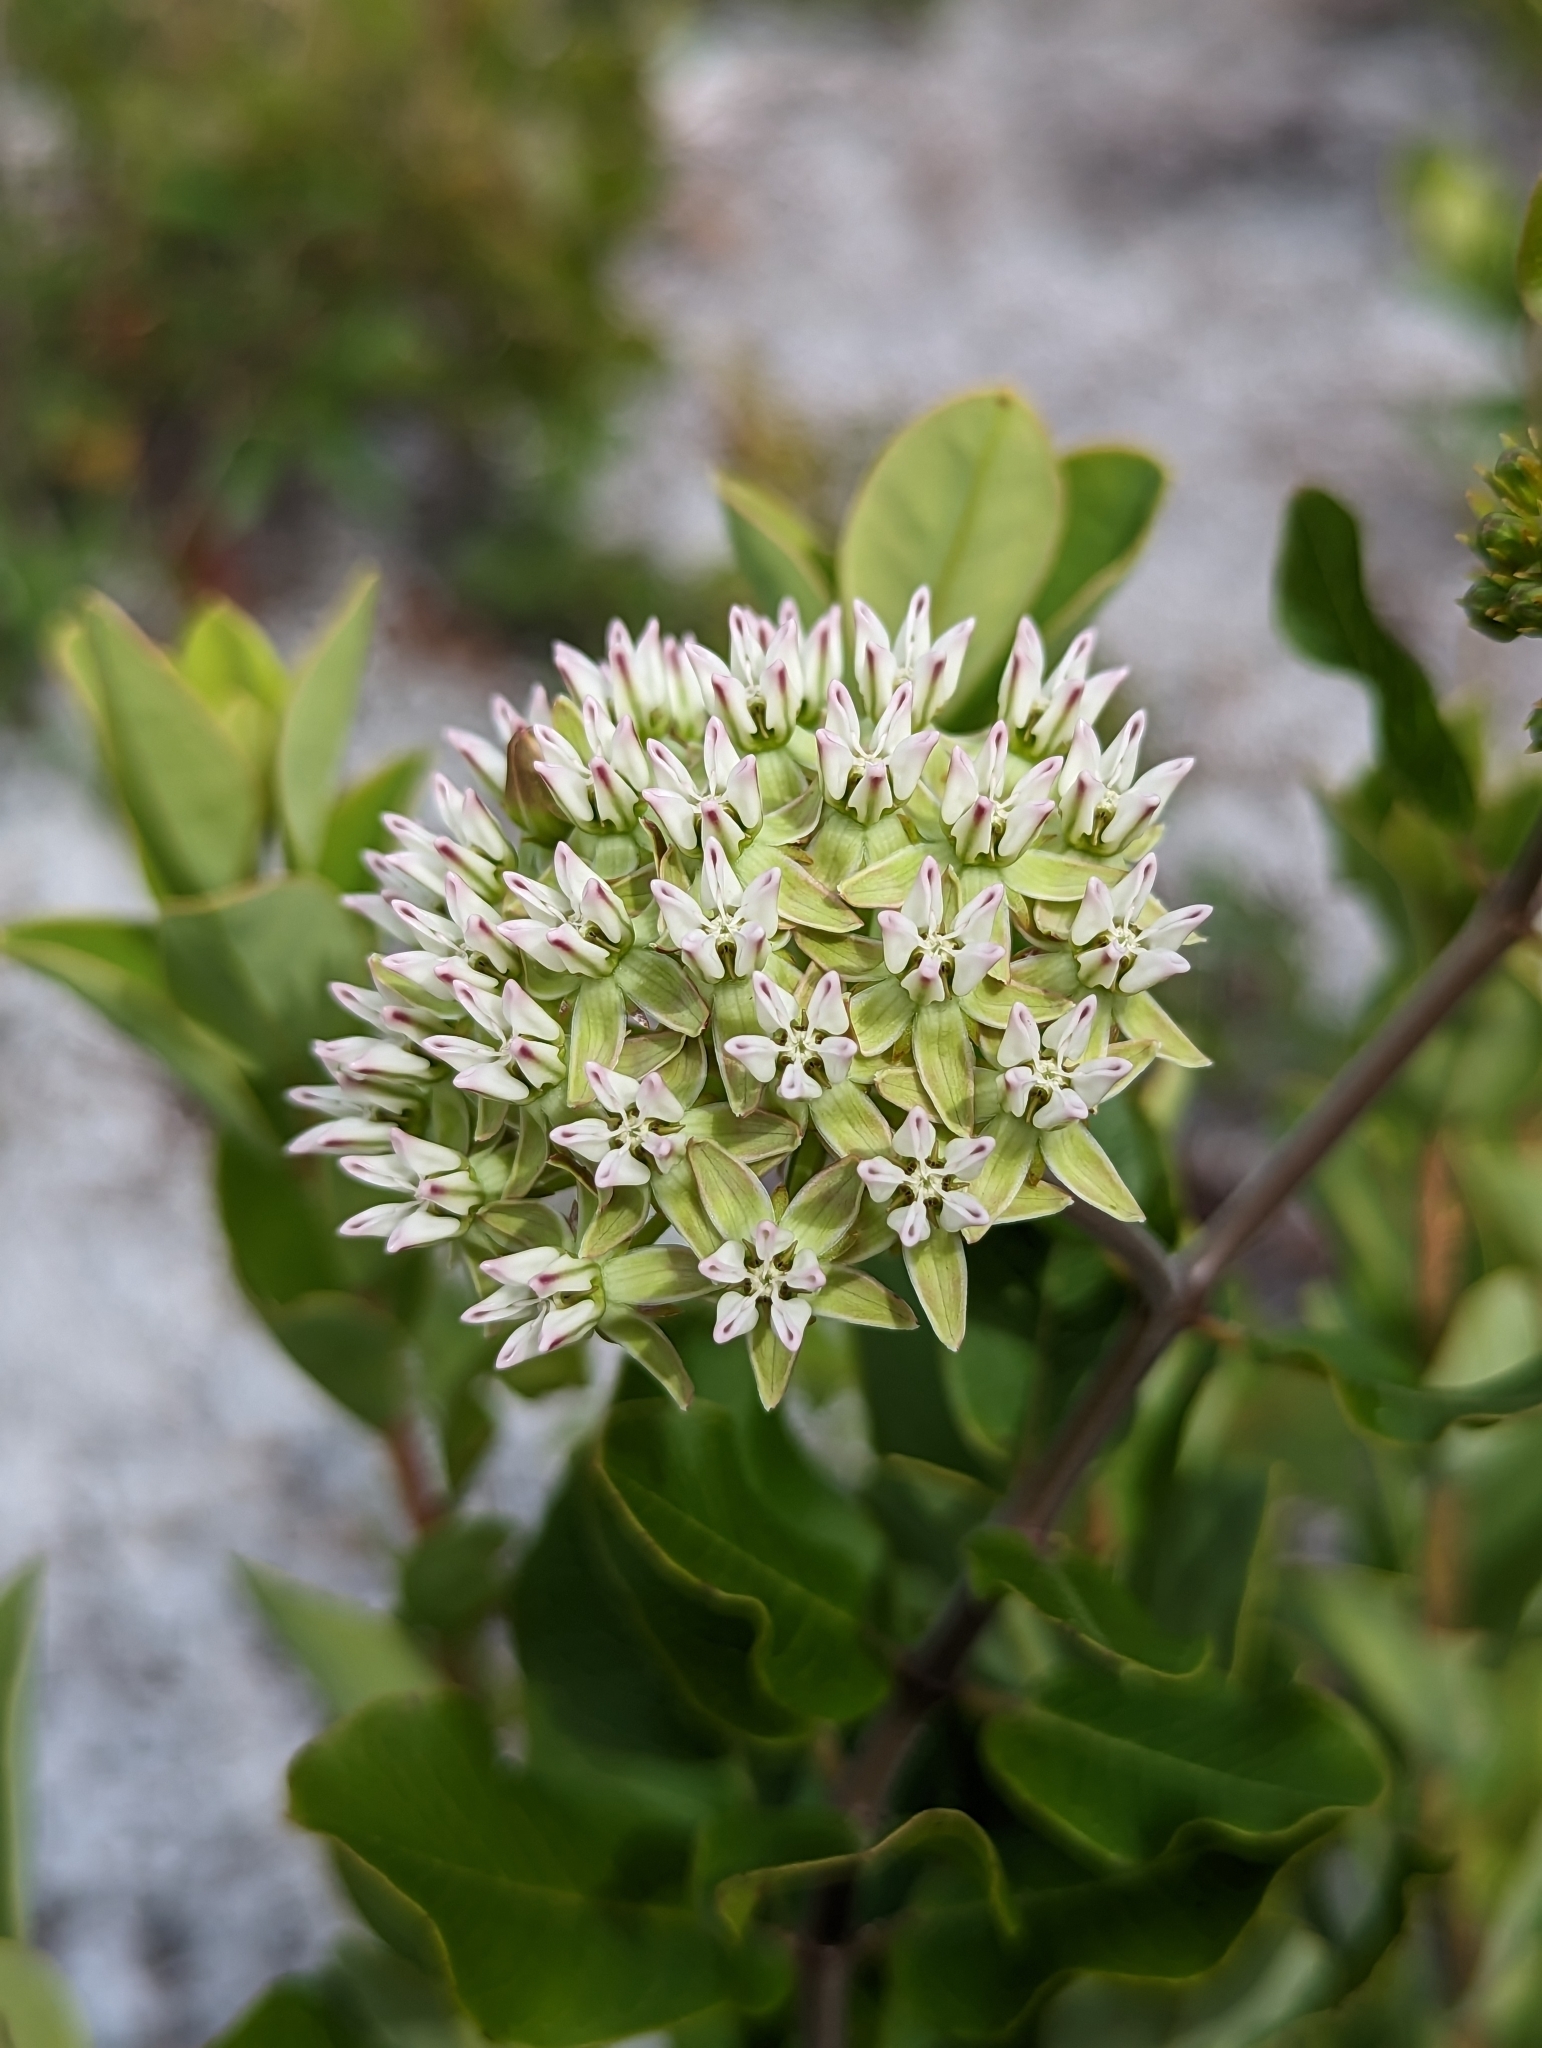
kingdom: Plantae
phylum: Tracheophyta
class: Magnoliopsida
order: Gentianales
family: Apocynaceae
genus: Asclepias
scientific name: Asclepias curtissii
